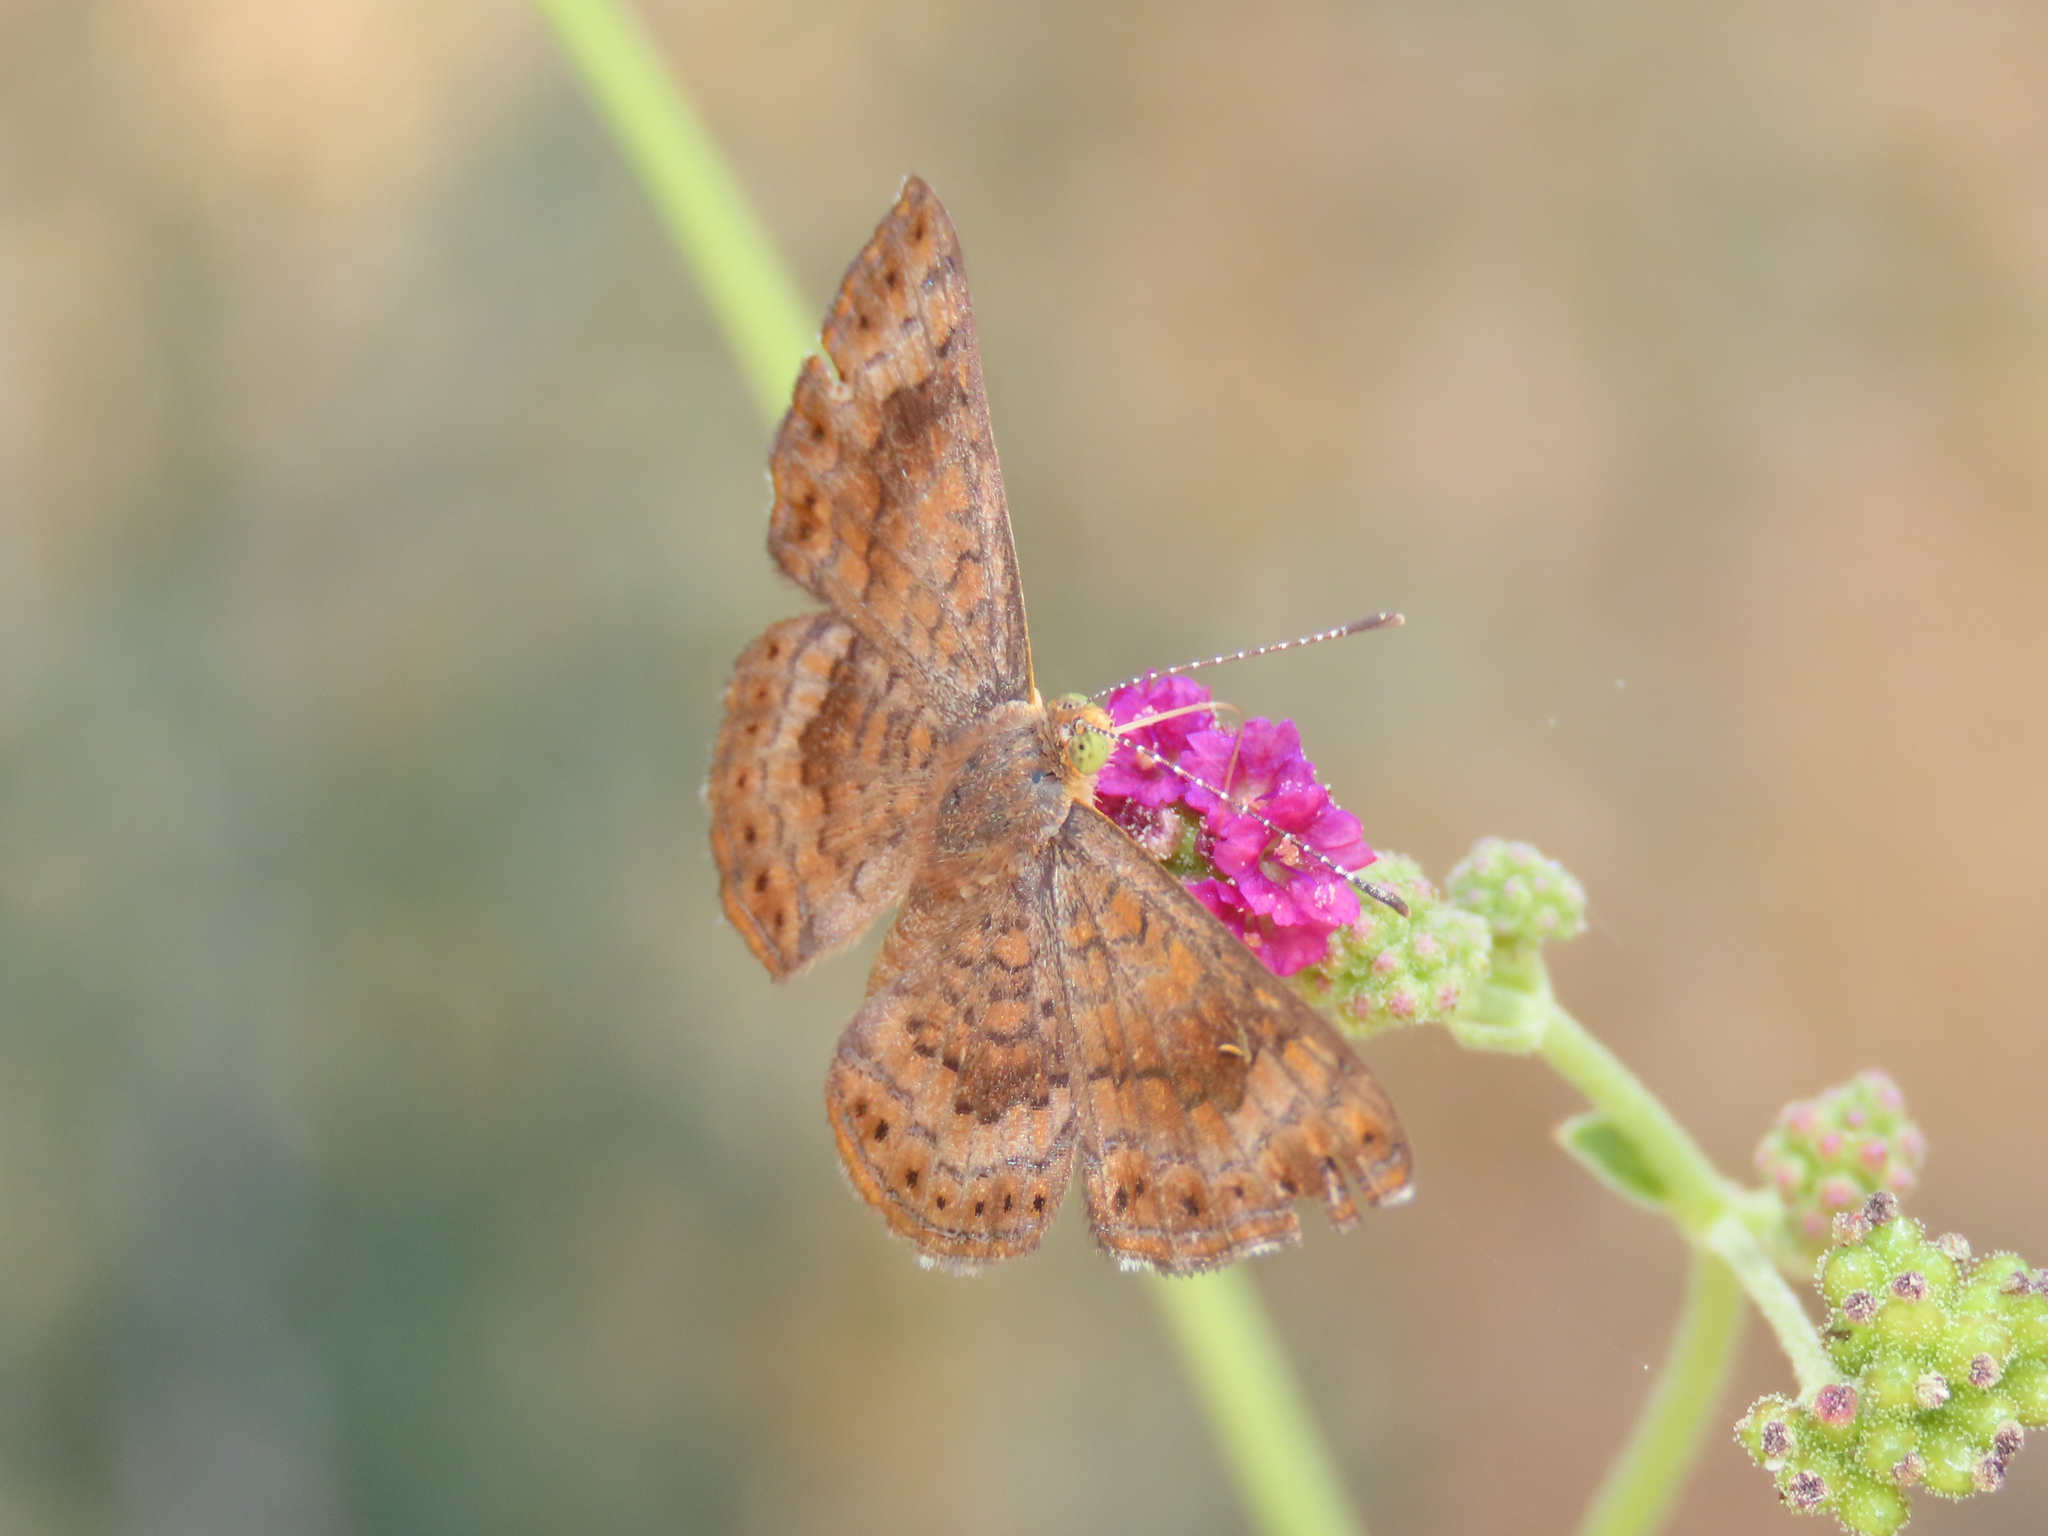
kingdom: Animalia
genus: Calephelis
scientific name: Calephelis nemesis
